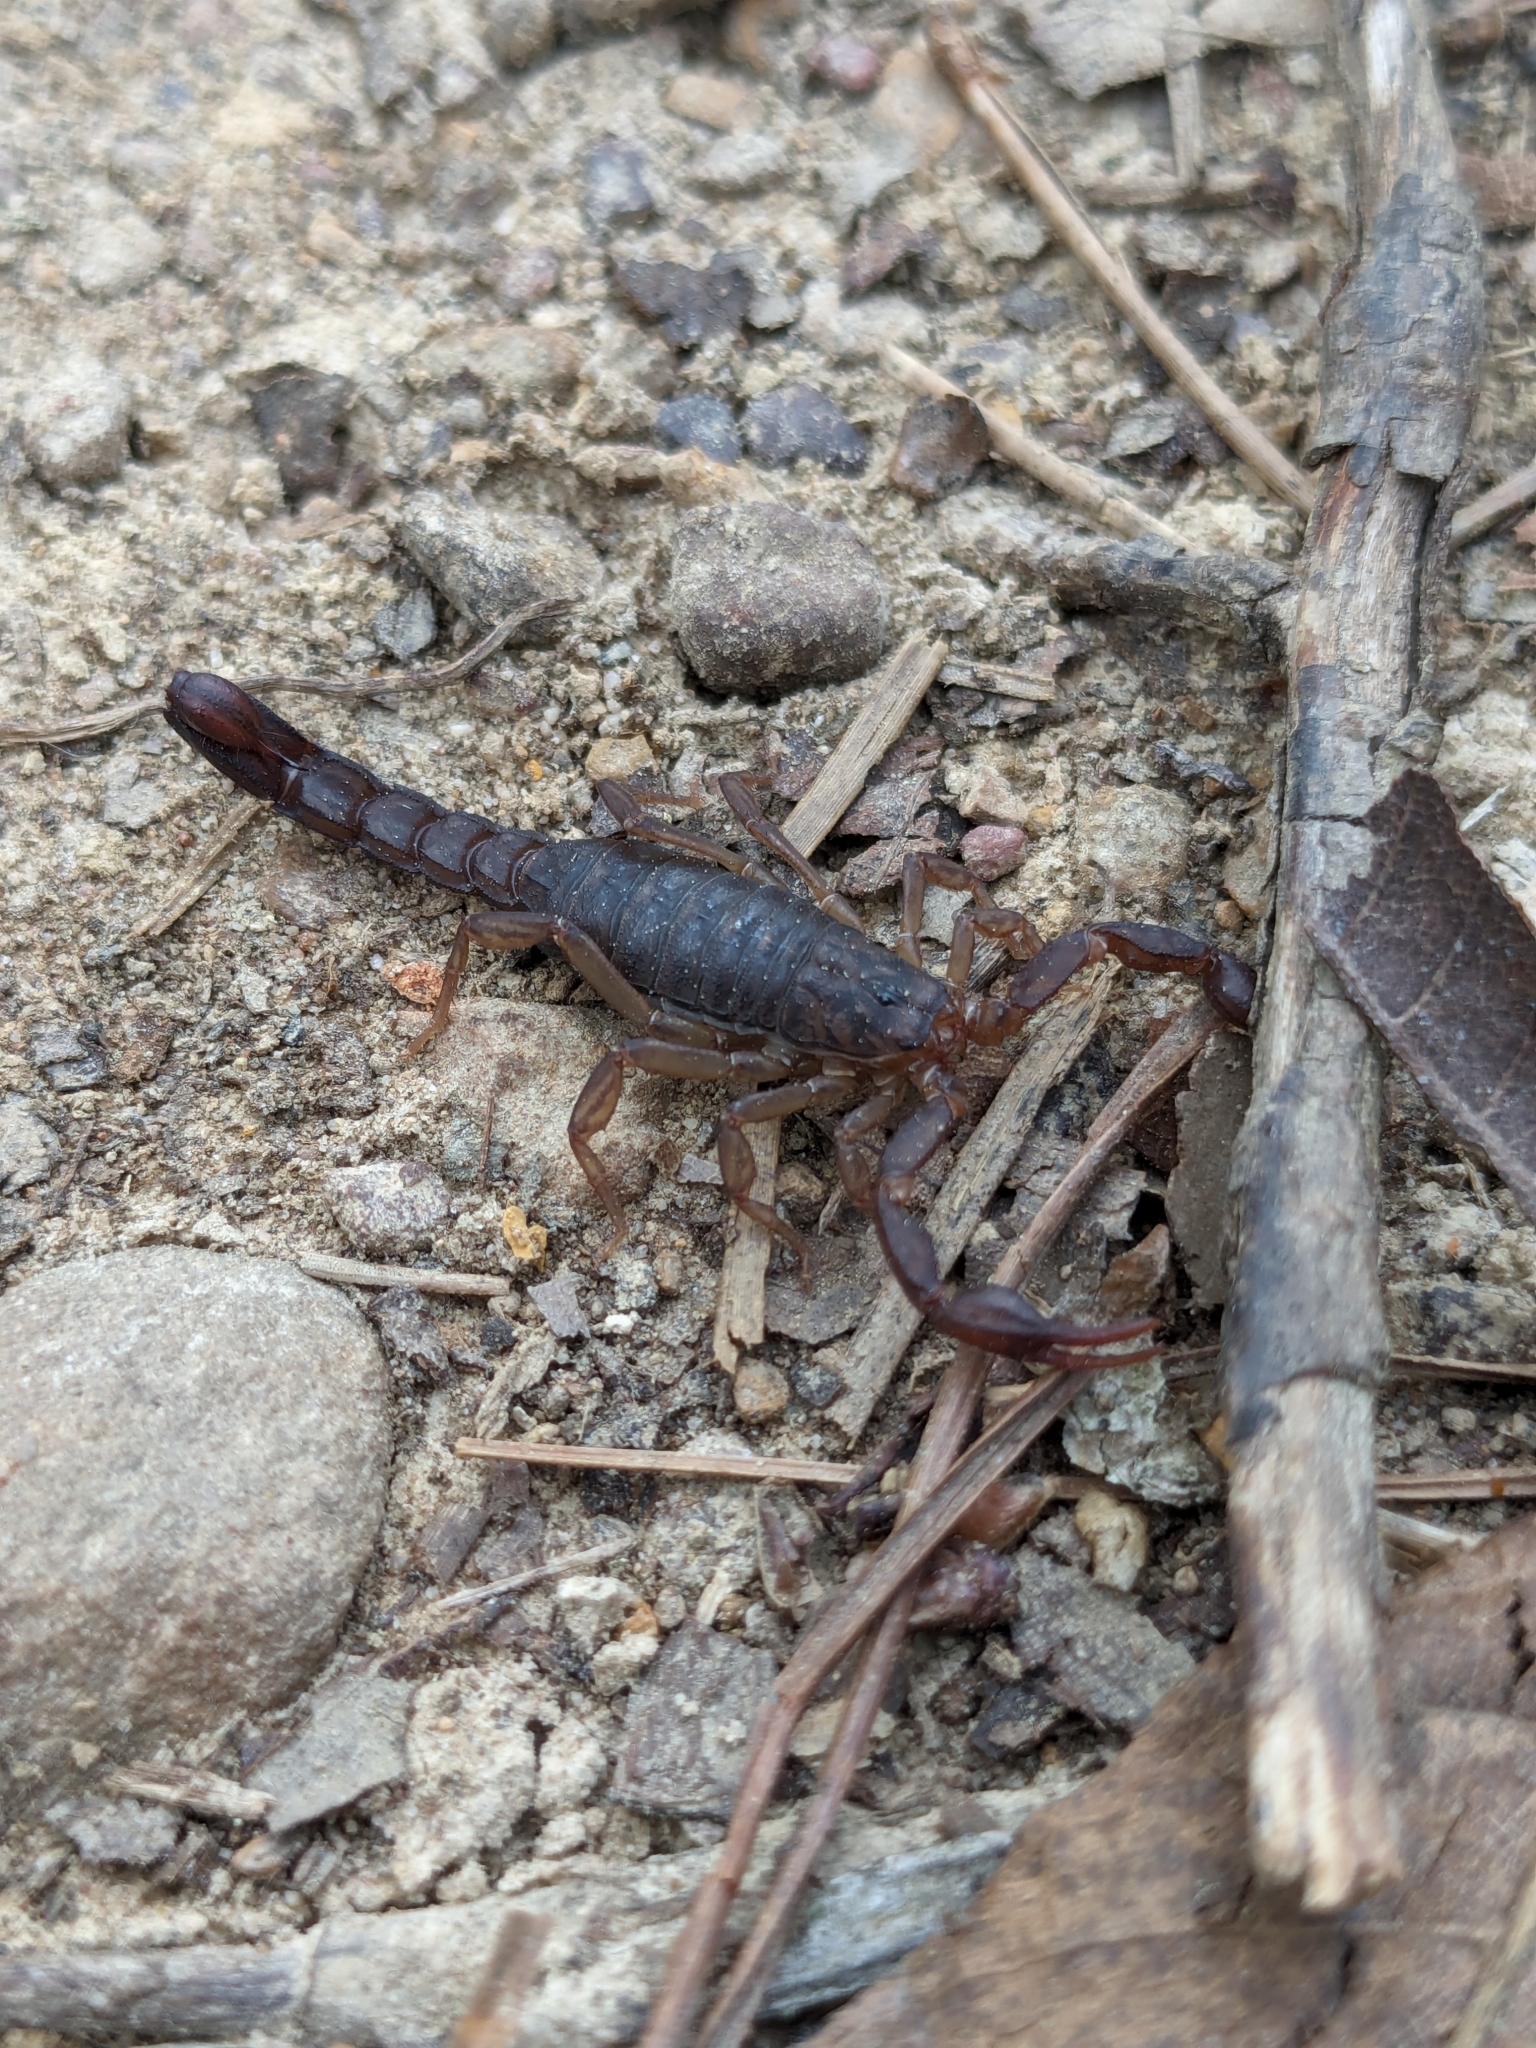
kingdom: Animalia
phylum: Arthropoda
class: Arachnida
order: Scorpiones
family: Vaejovidae
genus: Vaejovis
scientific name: Vaejovis carolinianus
